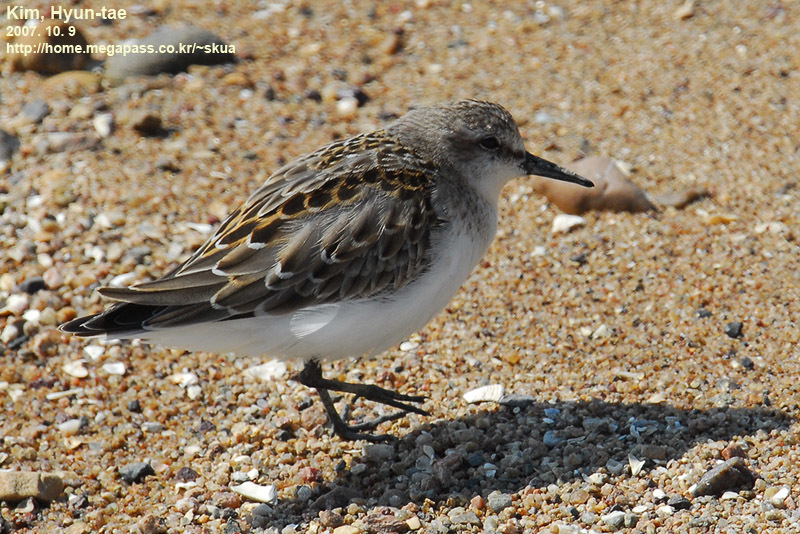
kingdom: Animalia
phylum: Chordata
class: Aves
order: Charadriiformes
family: Scolopacidae
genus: Calidris
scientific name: Calidris ruficollis
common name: Red-necked stint
